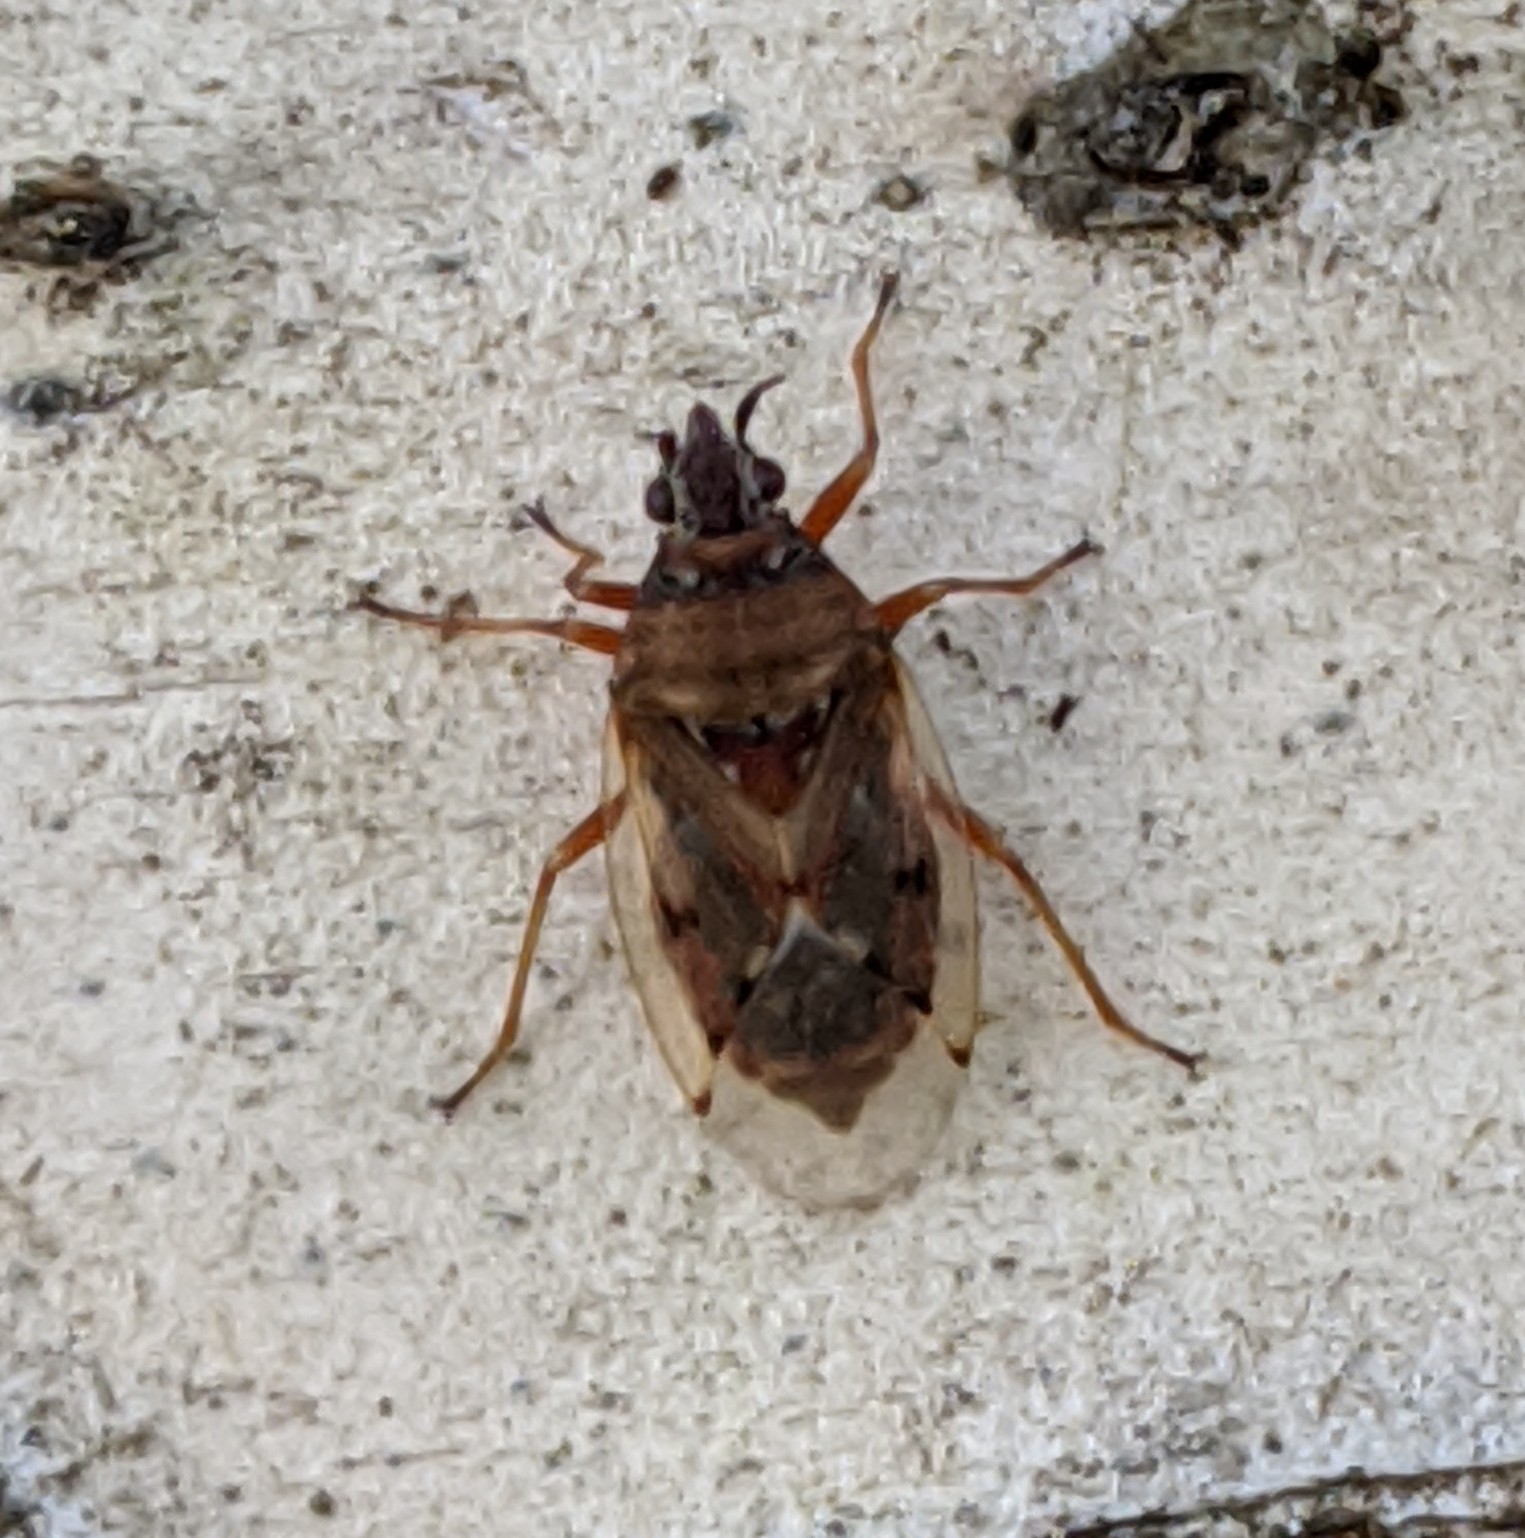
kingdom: Animalia
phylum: Arthropoda
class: Insecta
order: Hemiptera
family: Lygaeidae
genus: Kleidocerys
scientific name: Kleidocerys resedae
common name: Birch catkin bug
